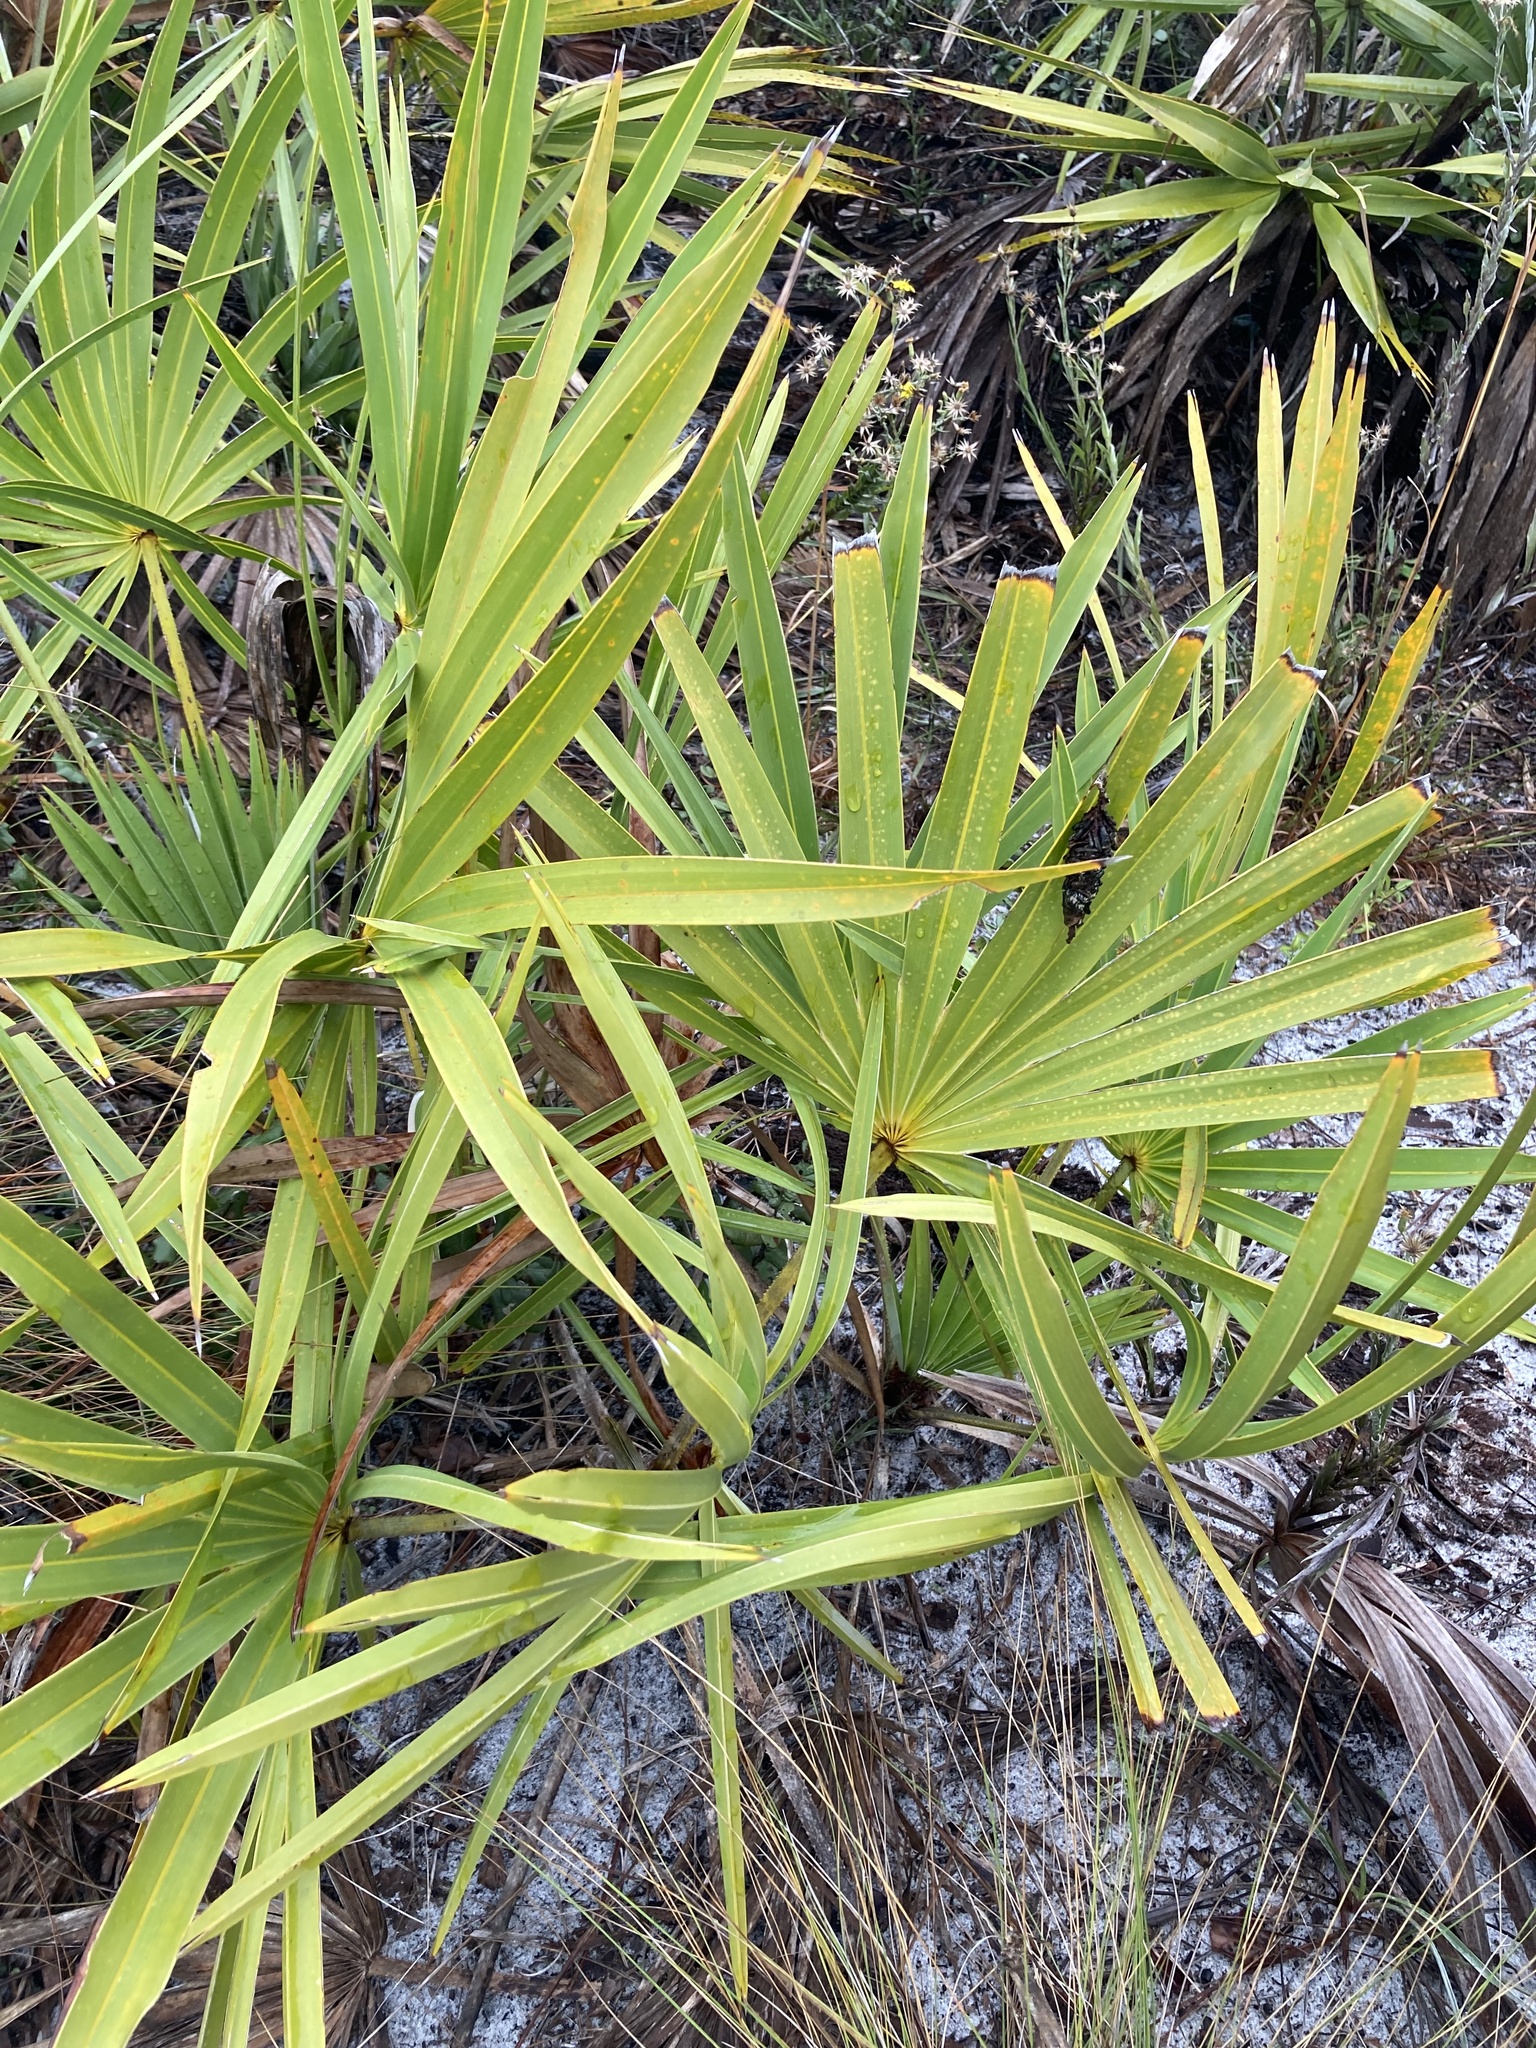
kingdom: Plantae
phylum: Tracheophyta
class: Liliopsida
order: Arecales
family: Arecaceae
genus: Serenoa
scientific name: Serenoa repens
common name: Saw-palmetto
